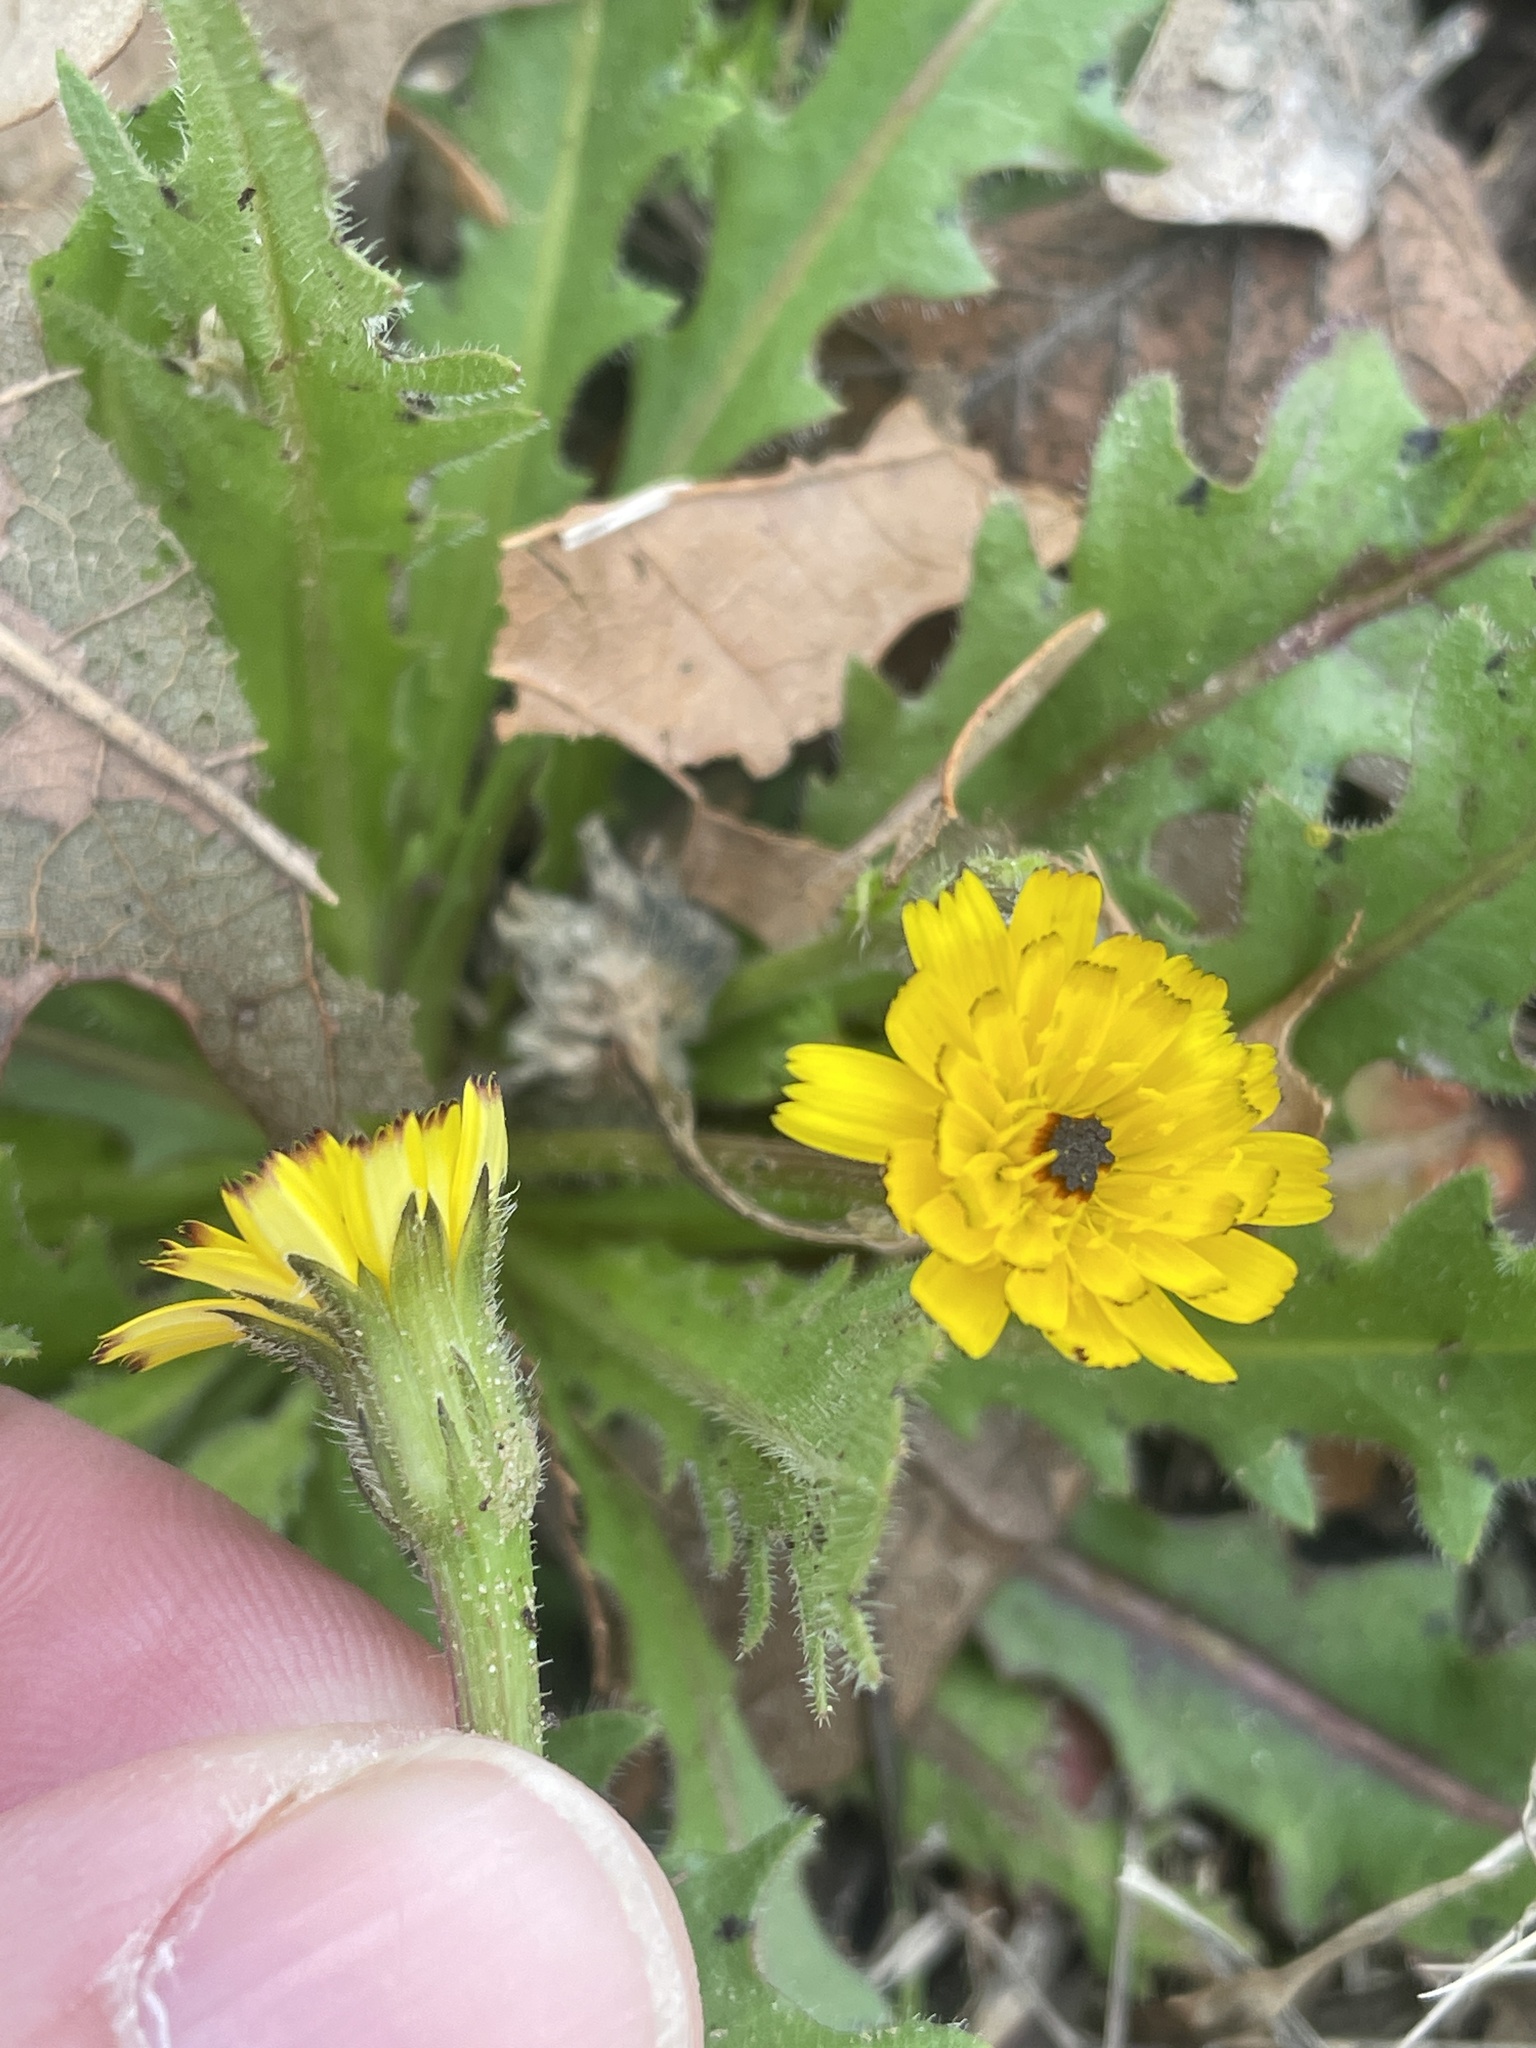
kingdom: Plantae
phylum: Tracheophyta
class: Magnoliopsida
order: Asterales
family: Asteraceae
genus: Hedypnois
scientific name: Hedypnois rhagadioloides
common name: Cretan weed
